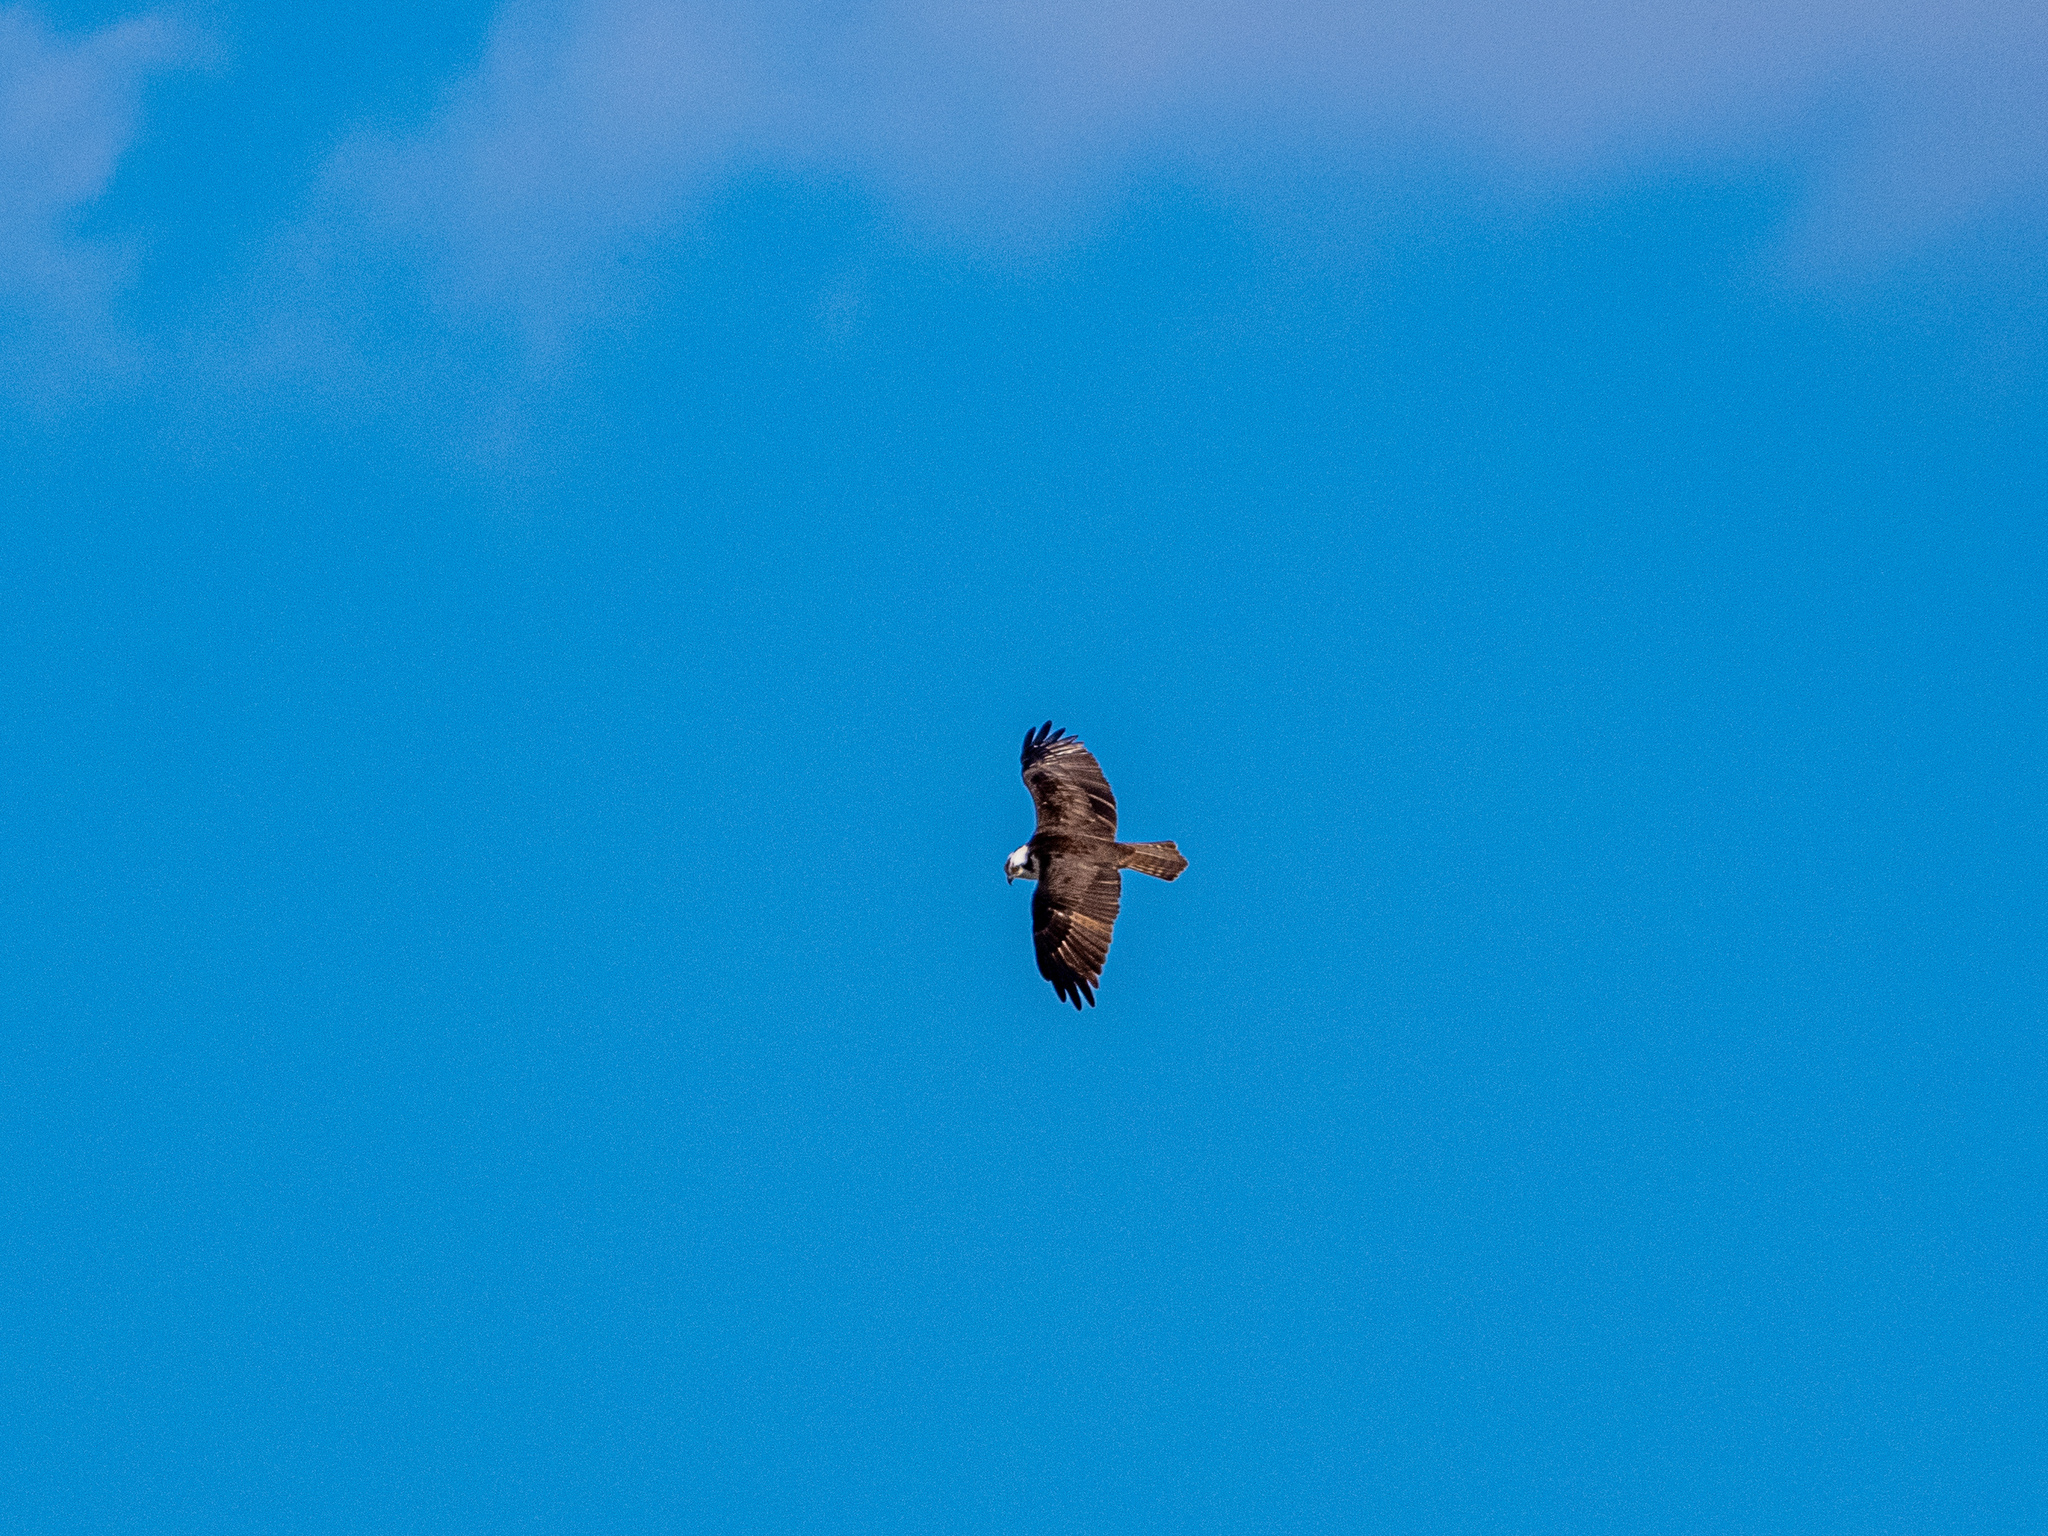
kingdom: Animalia
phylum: Chordata
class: Aves
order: Accipitriformes
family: Pandionidae
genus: Pandion
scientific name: Pandion haliaetus
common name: Osprey
